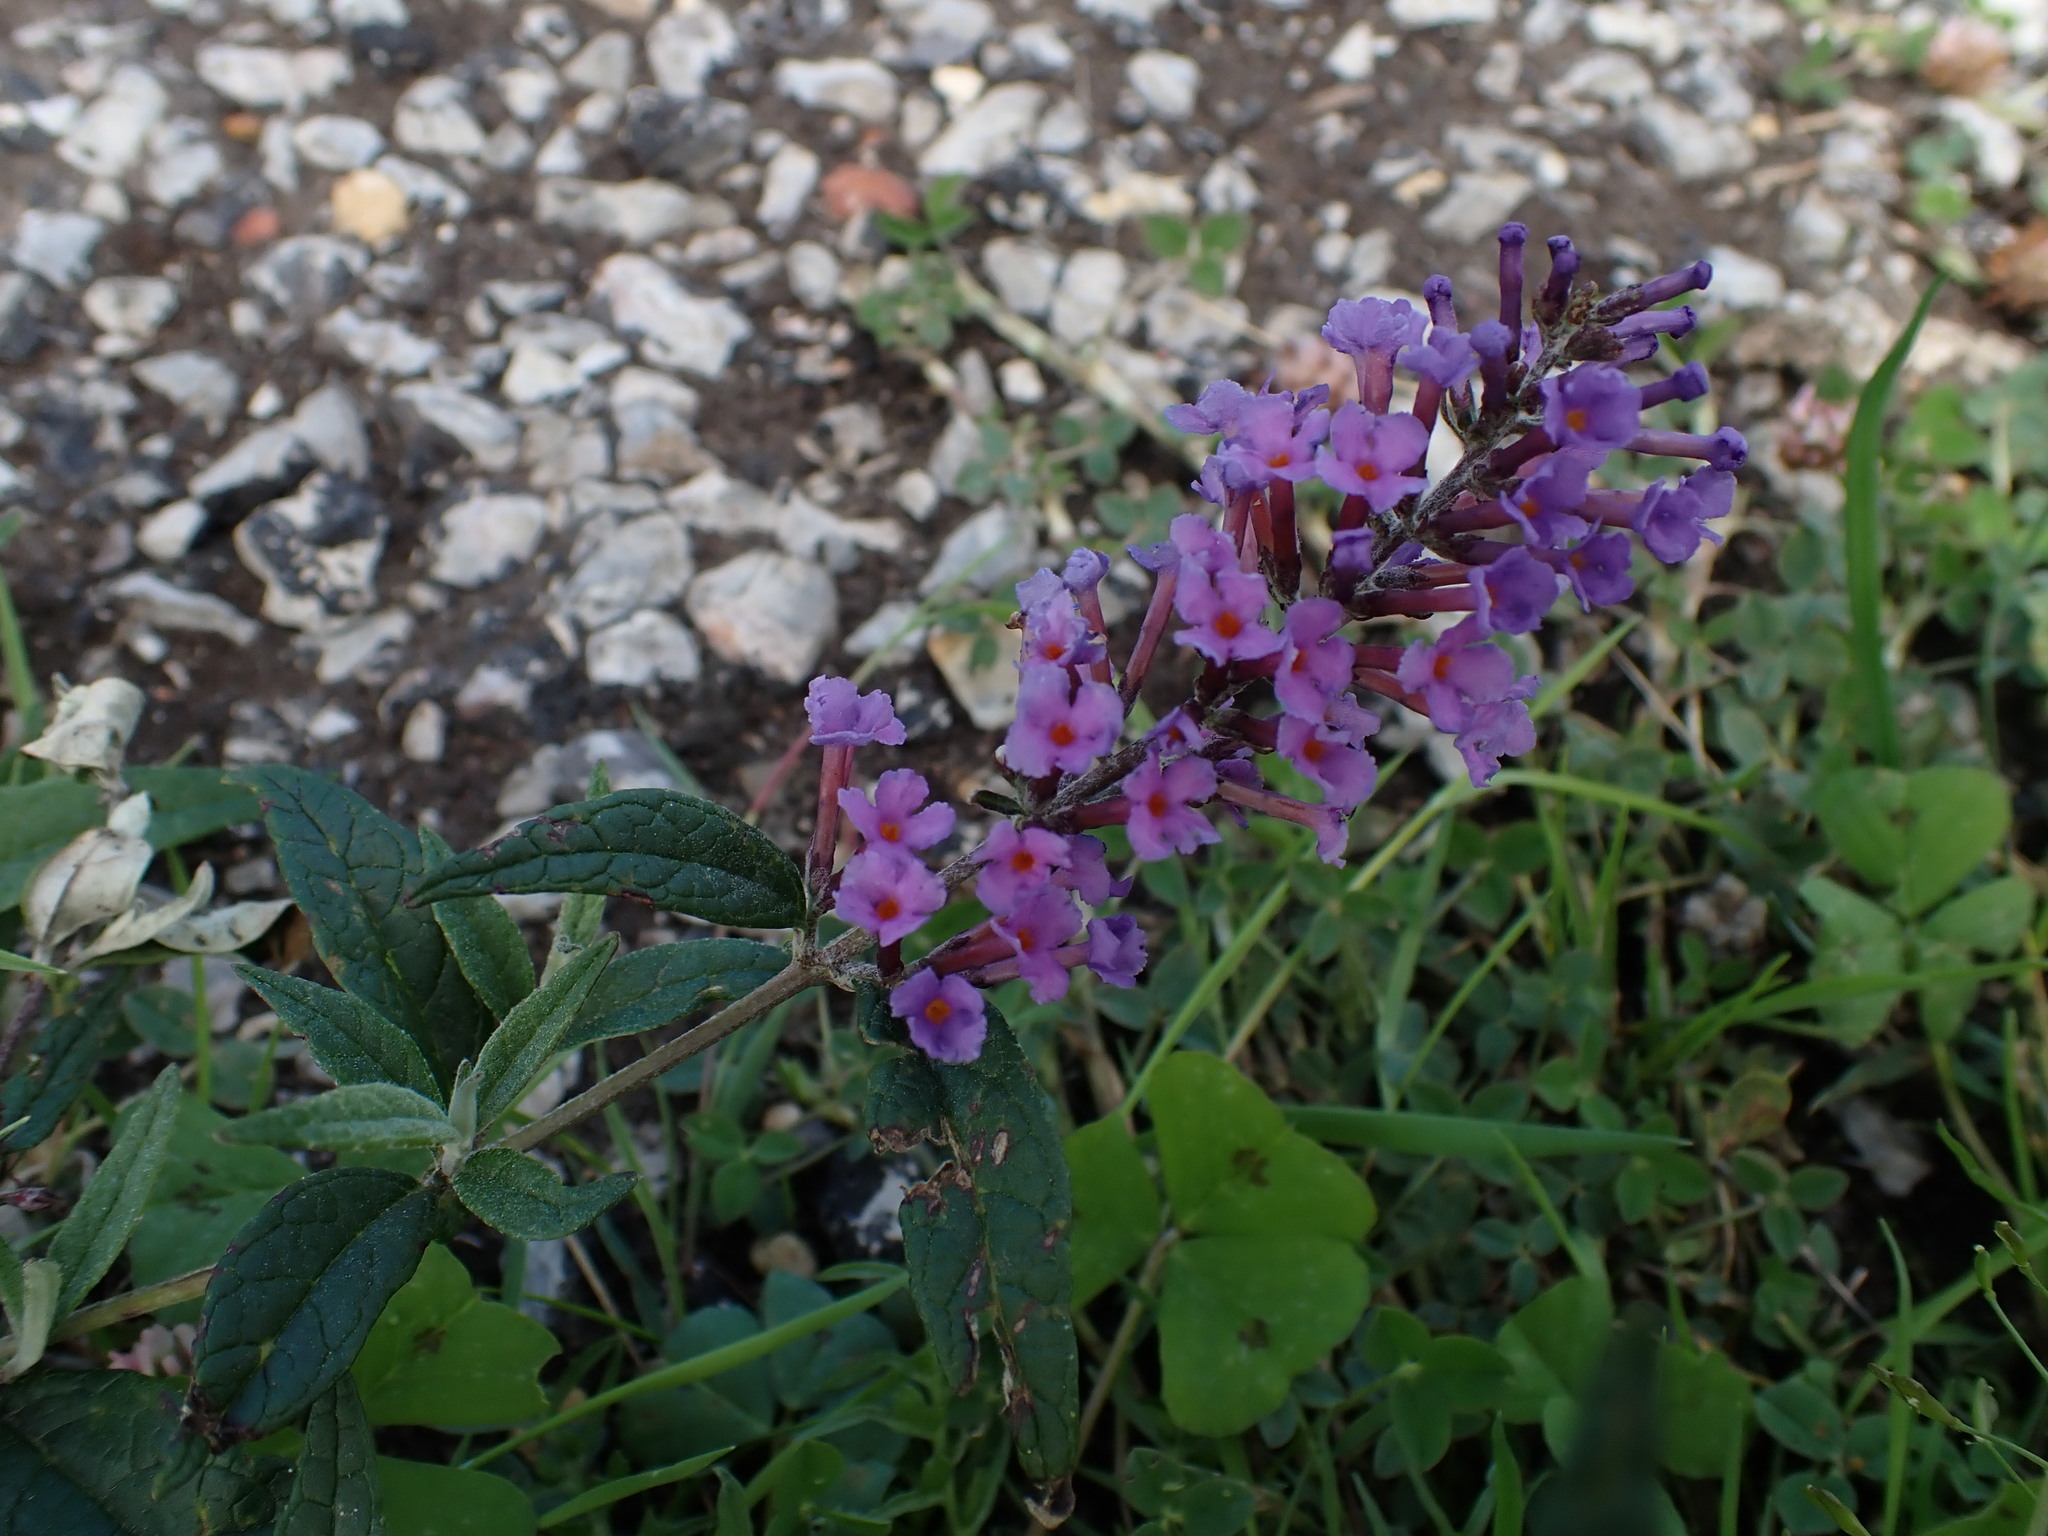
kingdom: Plantae
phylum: Tracheophyta
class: Magnoliopsida
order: Lamiales
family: Scrophulariaceae
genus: Buddleja
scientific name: Buddleja davidii
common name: Butterfly-bush
